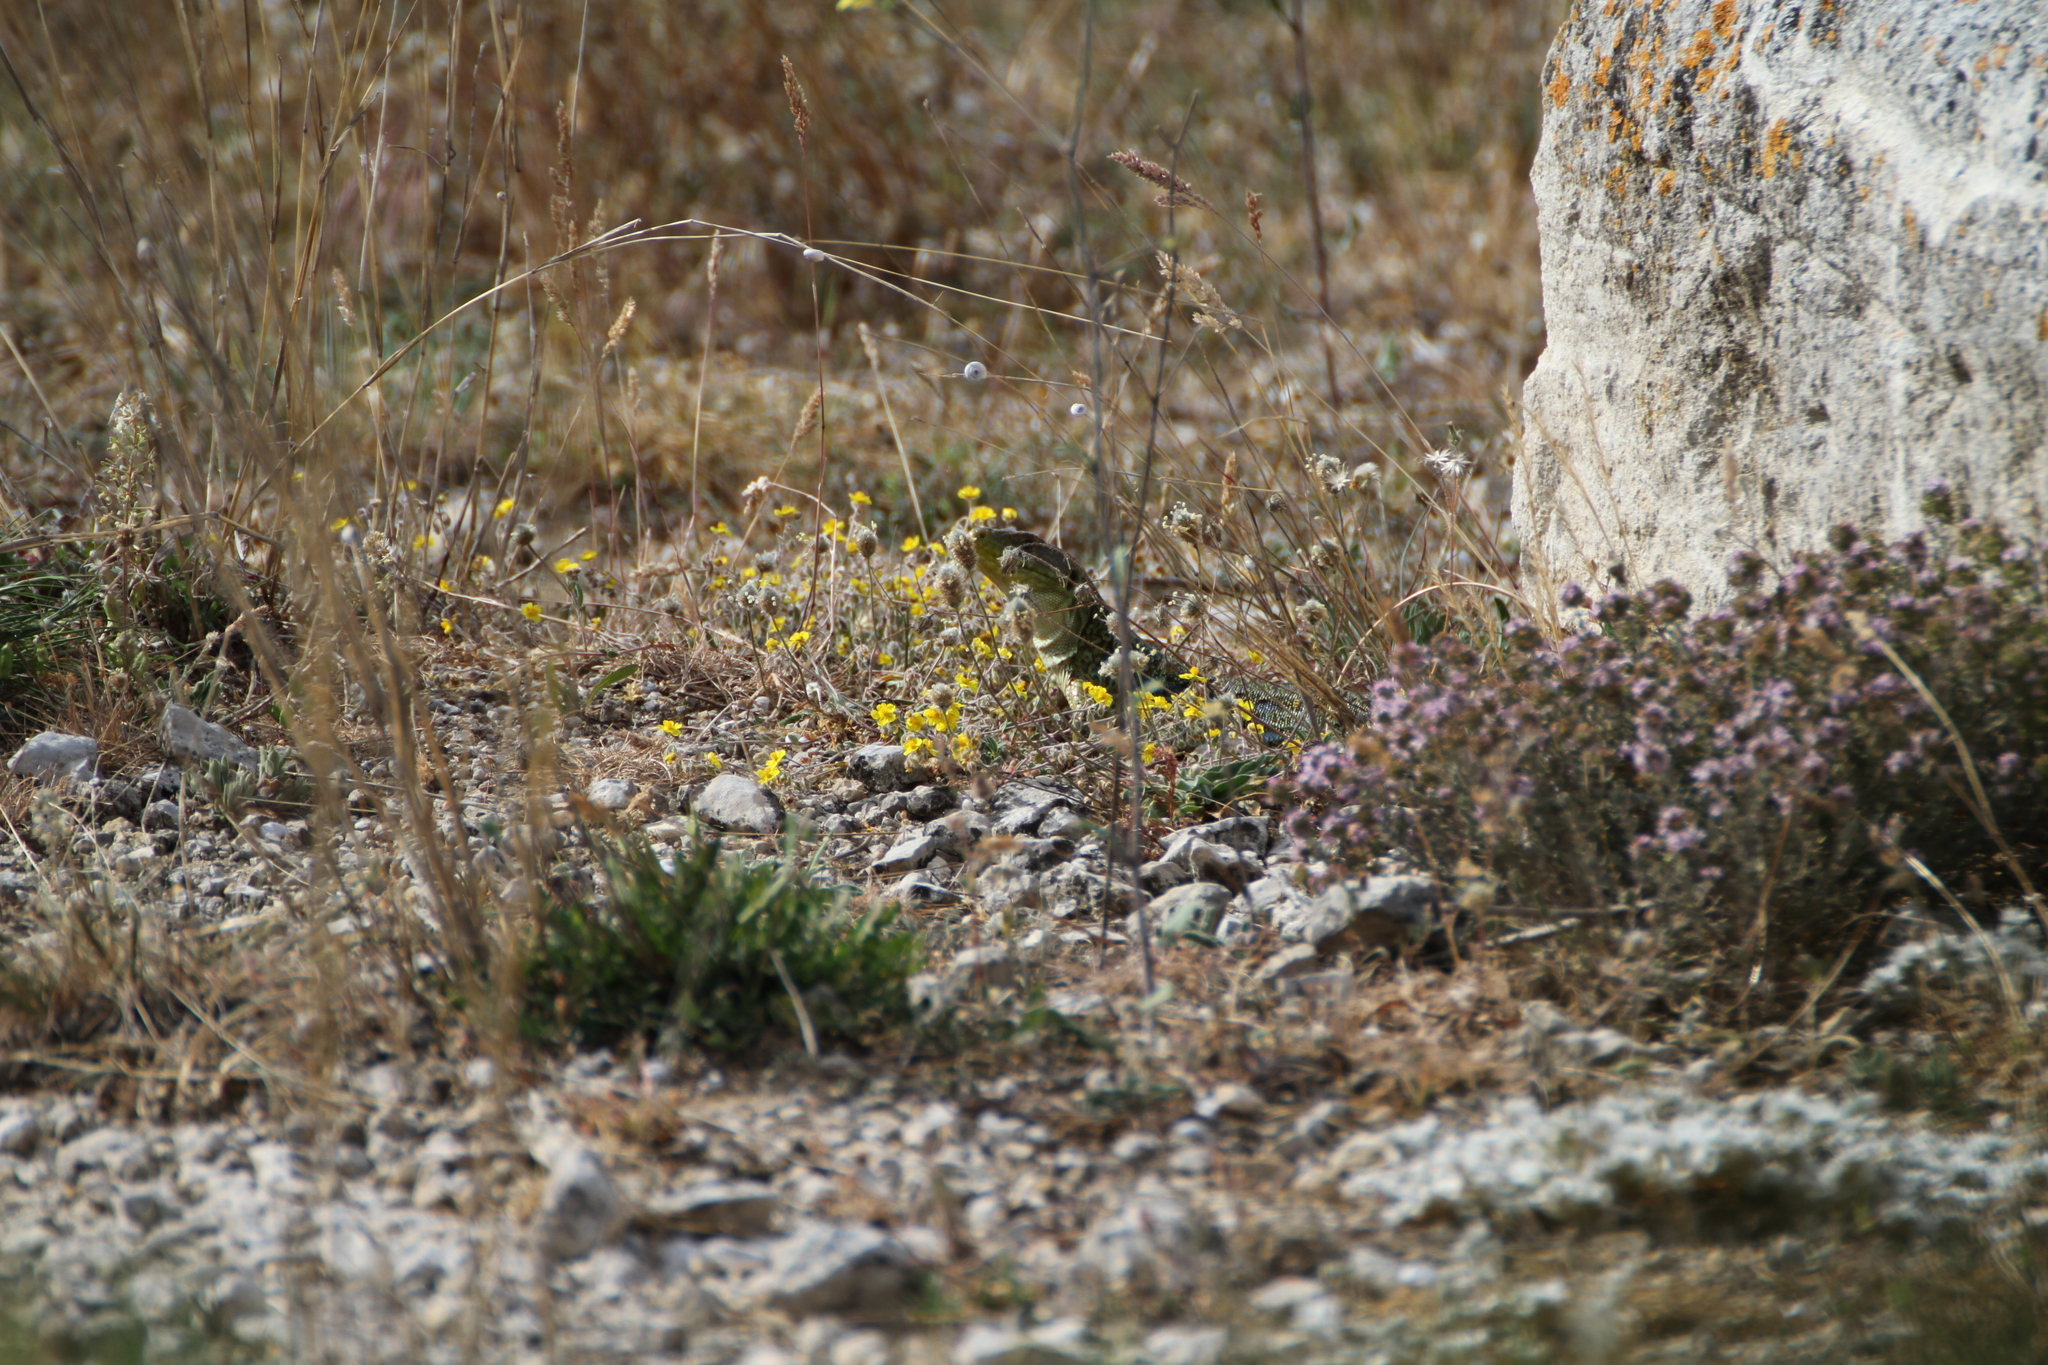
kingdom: Animalia
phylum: Chordata
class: Squamata
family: Lacertidae
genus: Timon
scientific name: Timon lepidus
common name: Ocellated lizard
